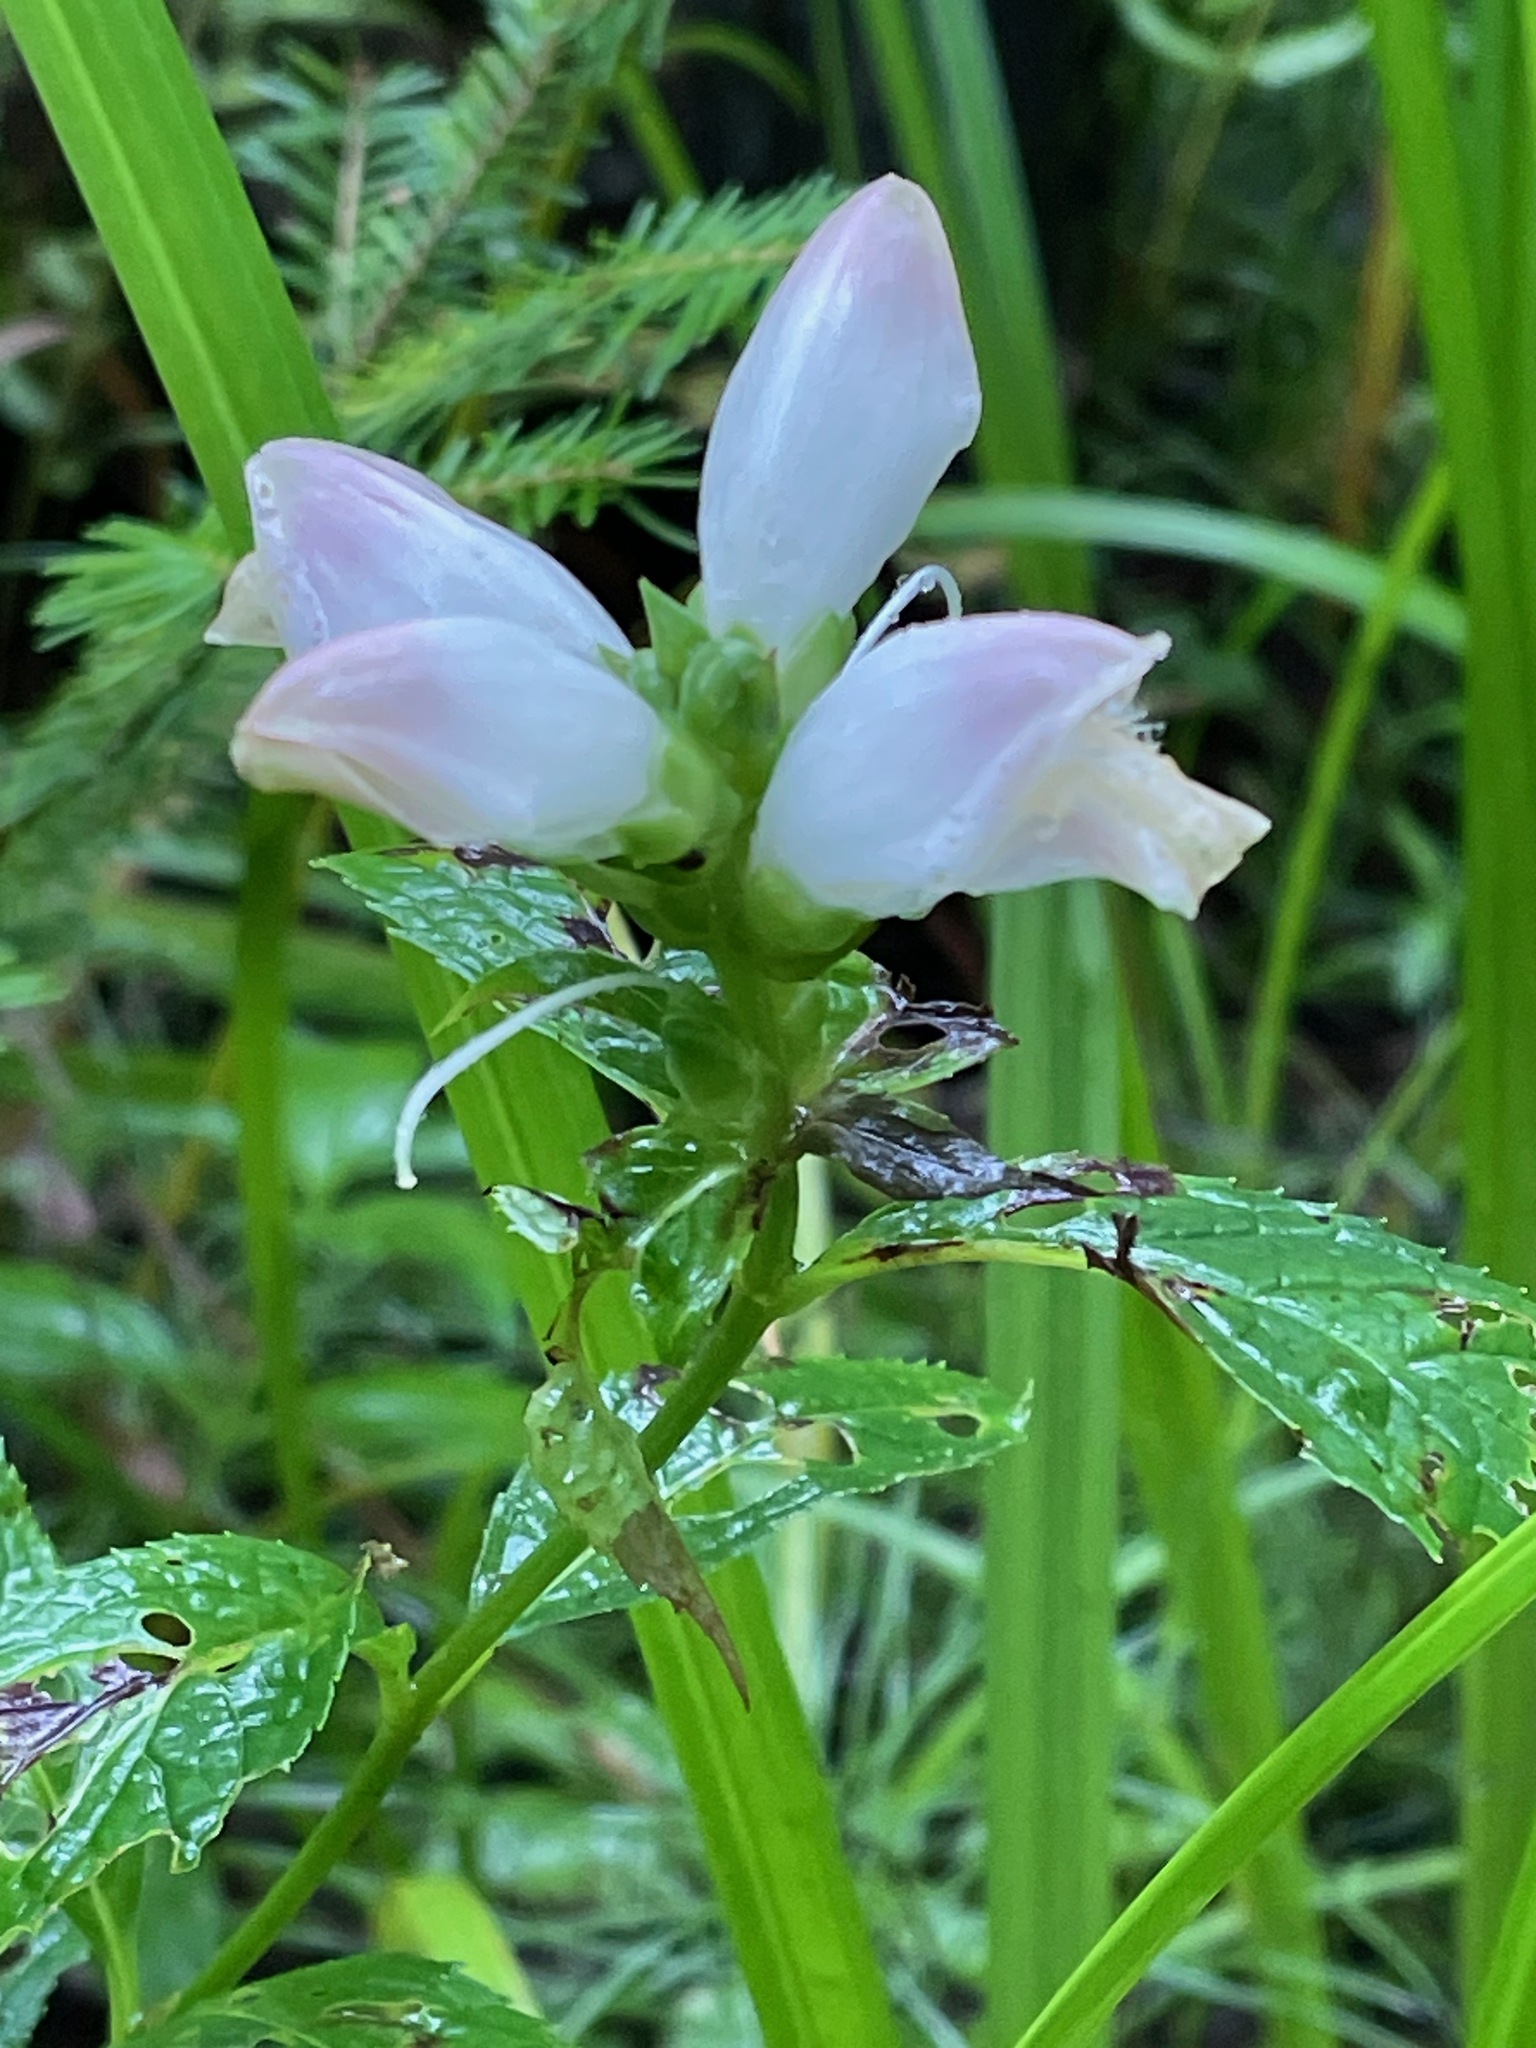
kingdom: Plantae
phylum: Tracheophyta
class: Magnoliopsida
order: Lamiales
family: Plantaginaceae
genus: Chelone
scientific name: Chelone glabra
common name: Snakehead
